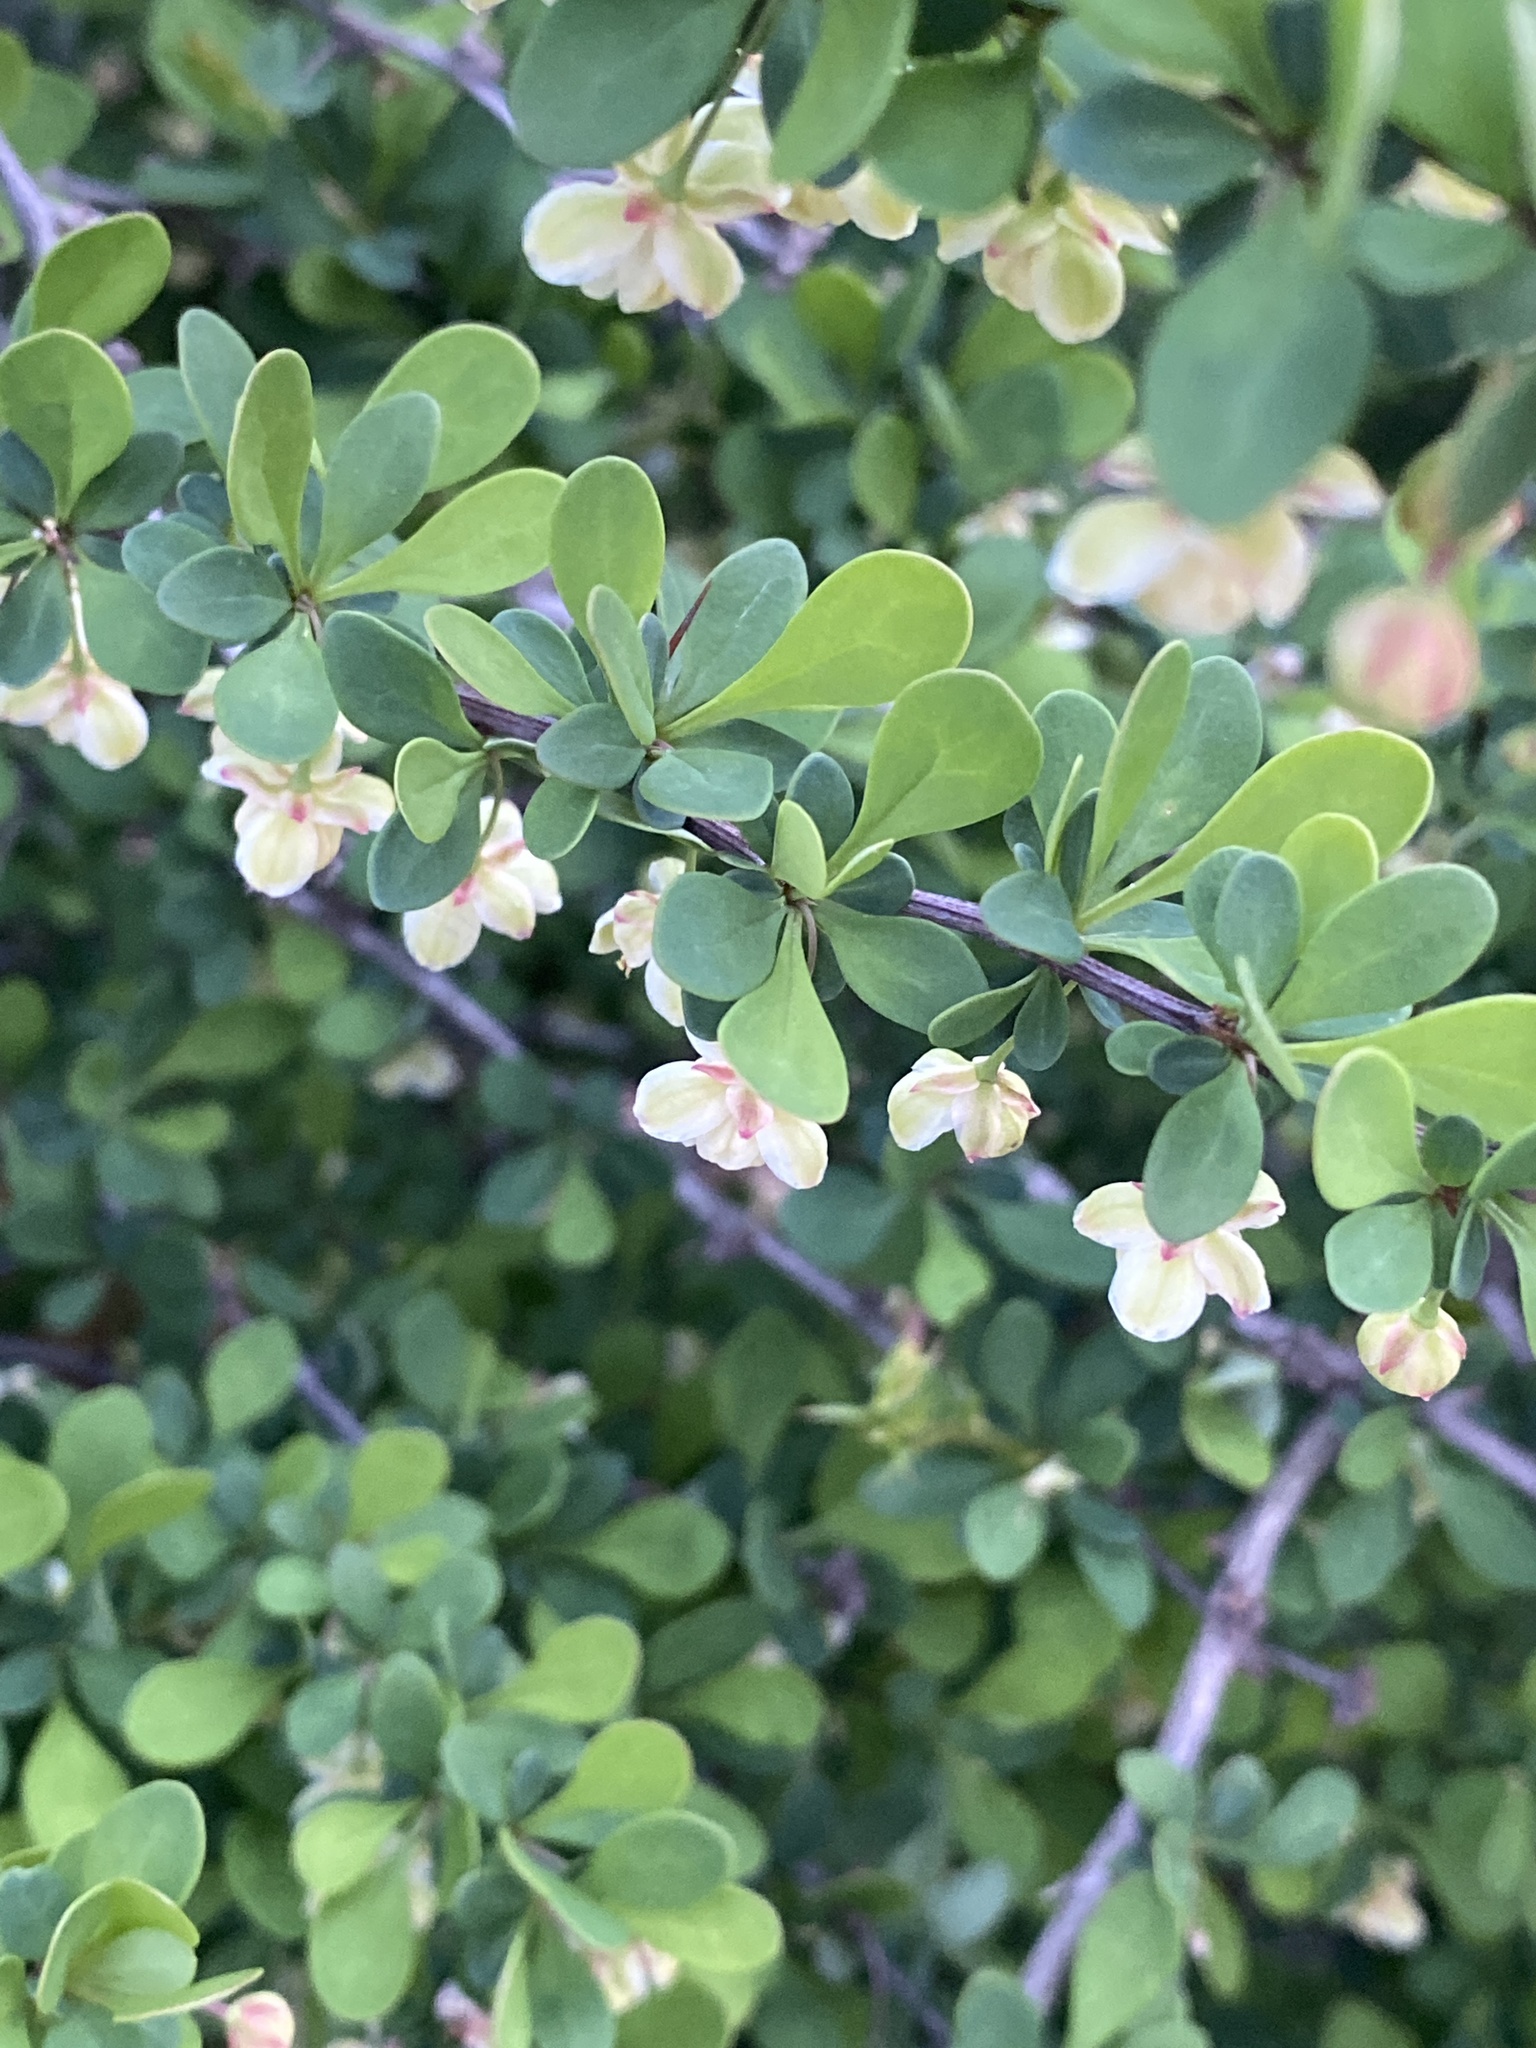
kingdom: Plantae
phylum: Tracheophyta
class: Magnoliopsida
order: Ranunculales
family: Berberidaceae
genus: Berberis
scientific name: Berberis thunbergii
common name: Japanese barberry
